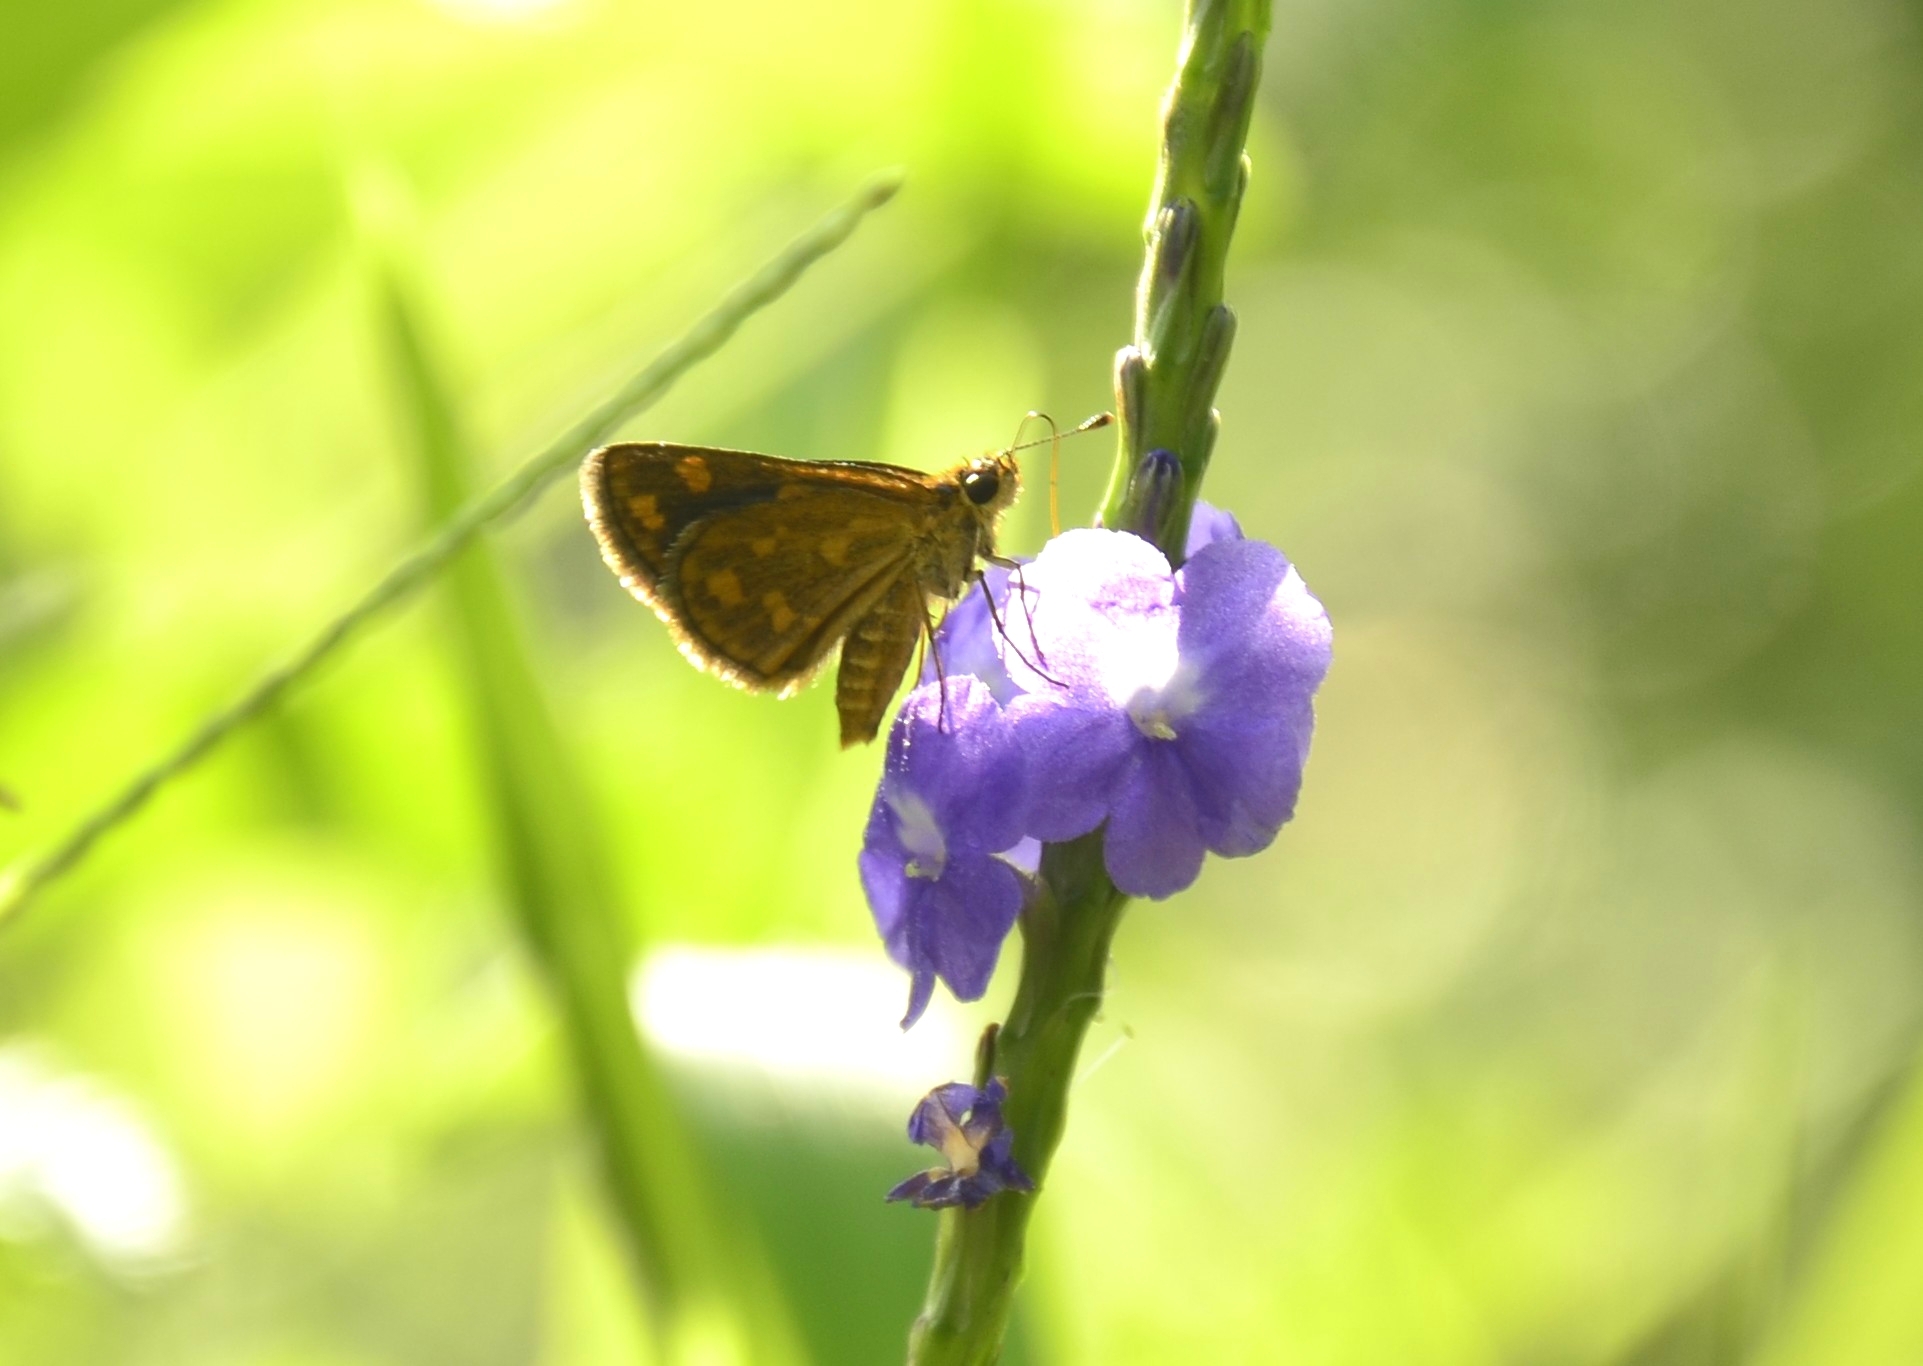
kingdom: Animalia
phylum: Arthropoda
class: Insecta
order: Lepidoptera
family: Hesperiidae
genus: Taractrocera
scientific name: Taractrocera ceramas
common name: Tamil grass dart
